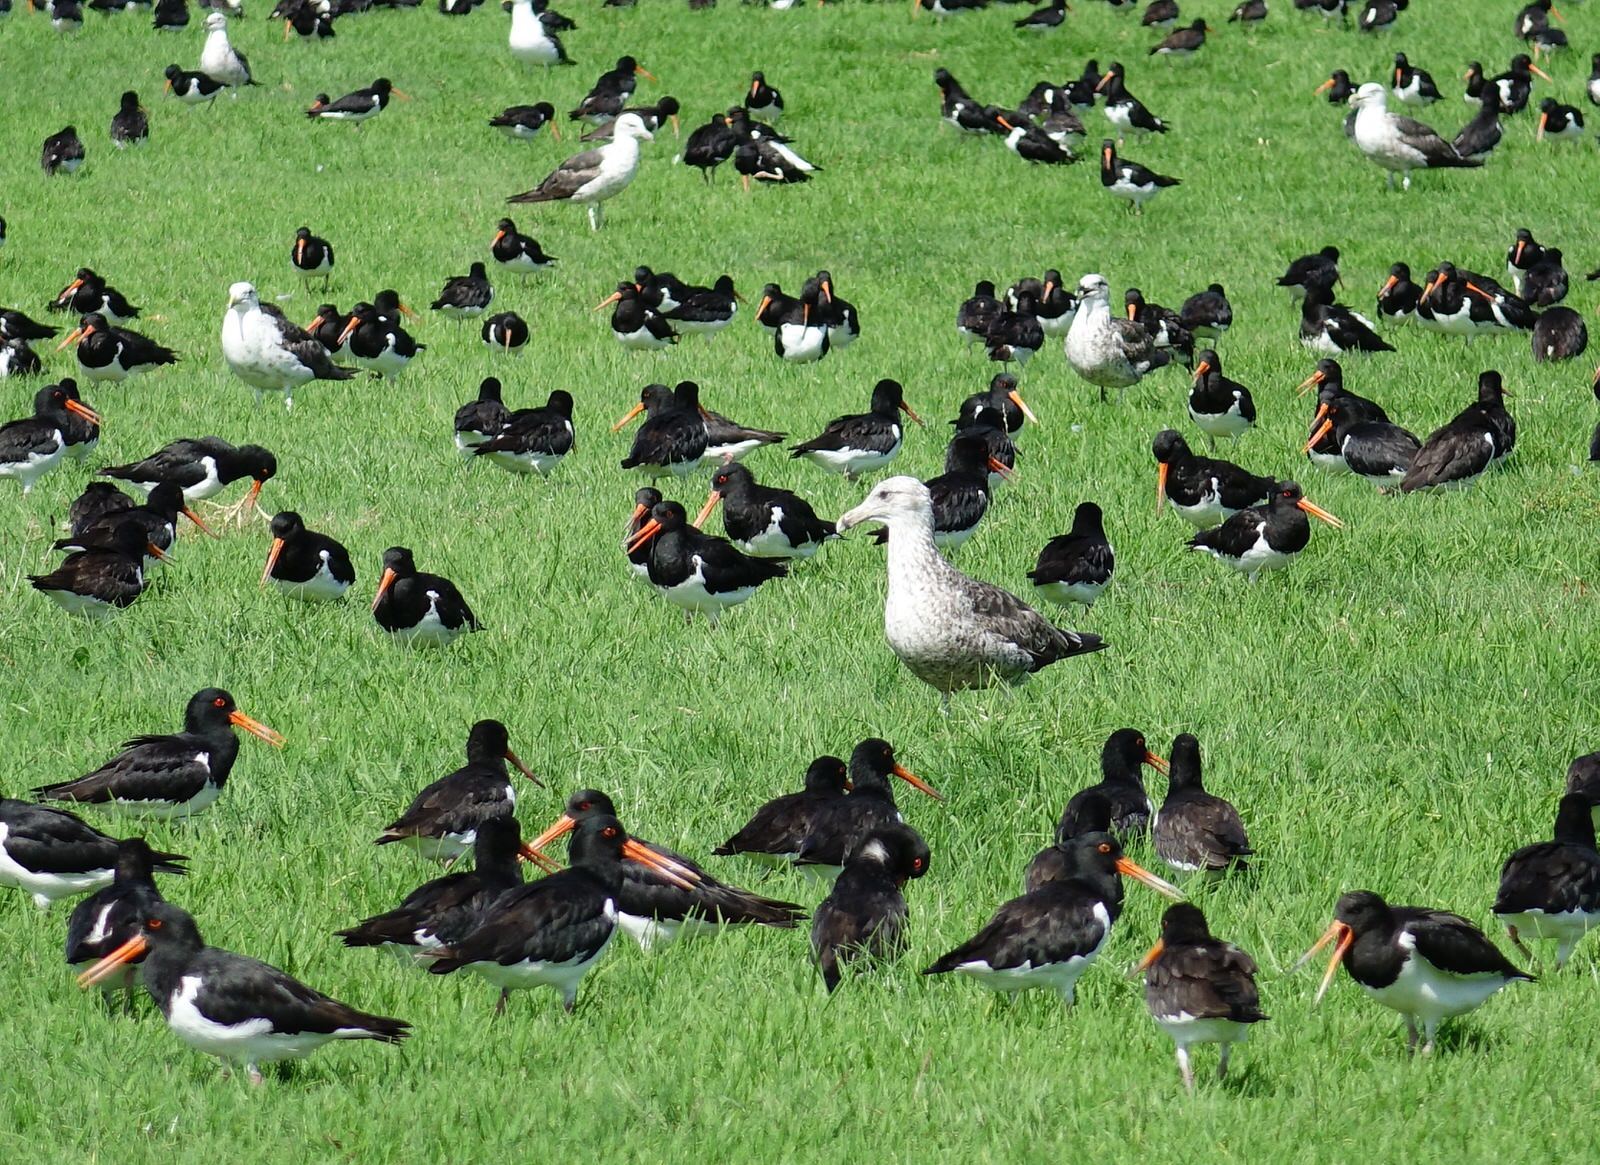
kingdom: Animalia
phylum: Chordata
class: Aves
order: Charadriiformes
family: Laridae
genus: Larus
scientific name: Larus dominicanus
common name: Kelp gull
